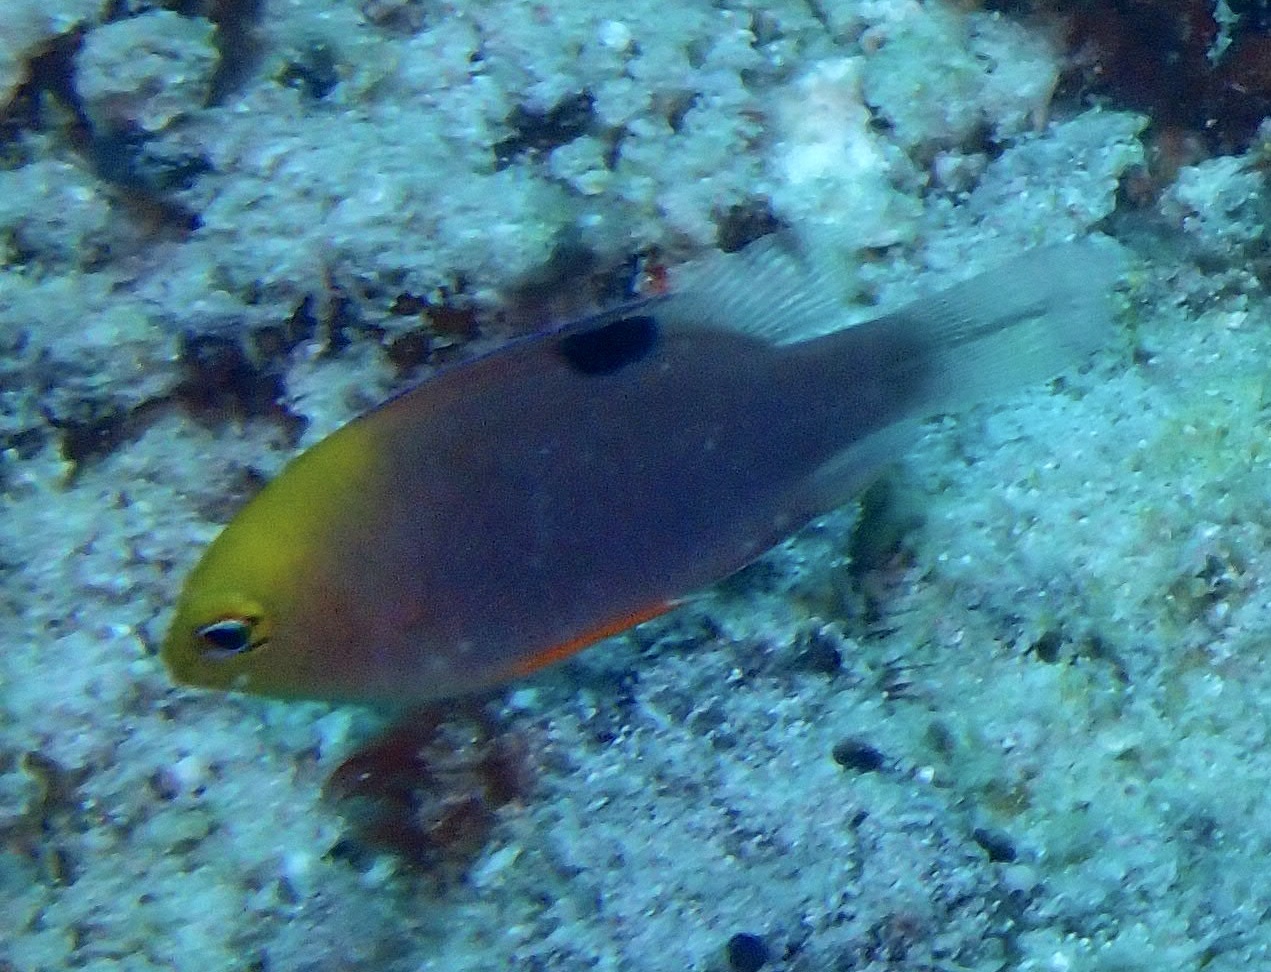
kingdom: Animalia
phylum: Chordata
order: Perciformes
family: Pomacentridae
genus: Chrysiptera
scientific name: Chrysiptera talboti
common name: Talbot's demoiselle
